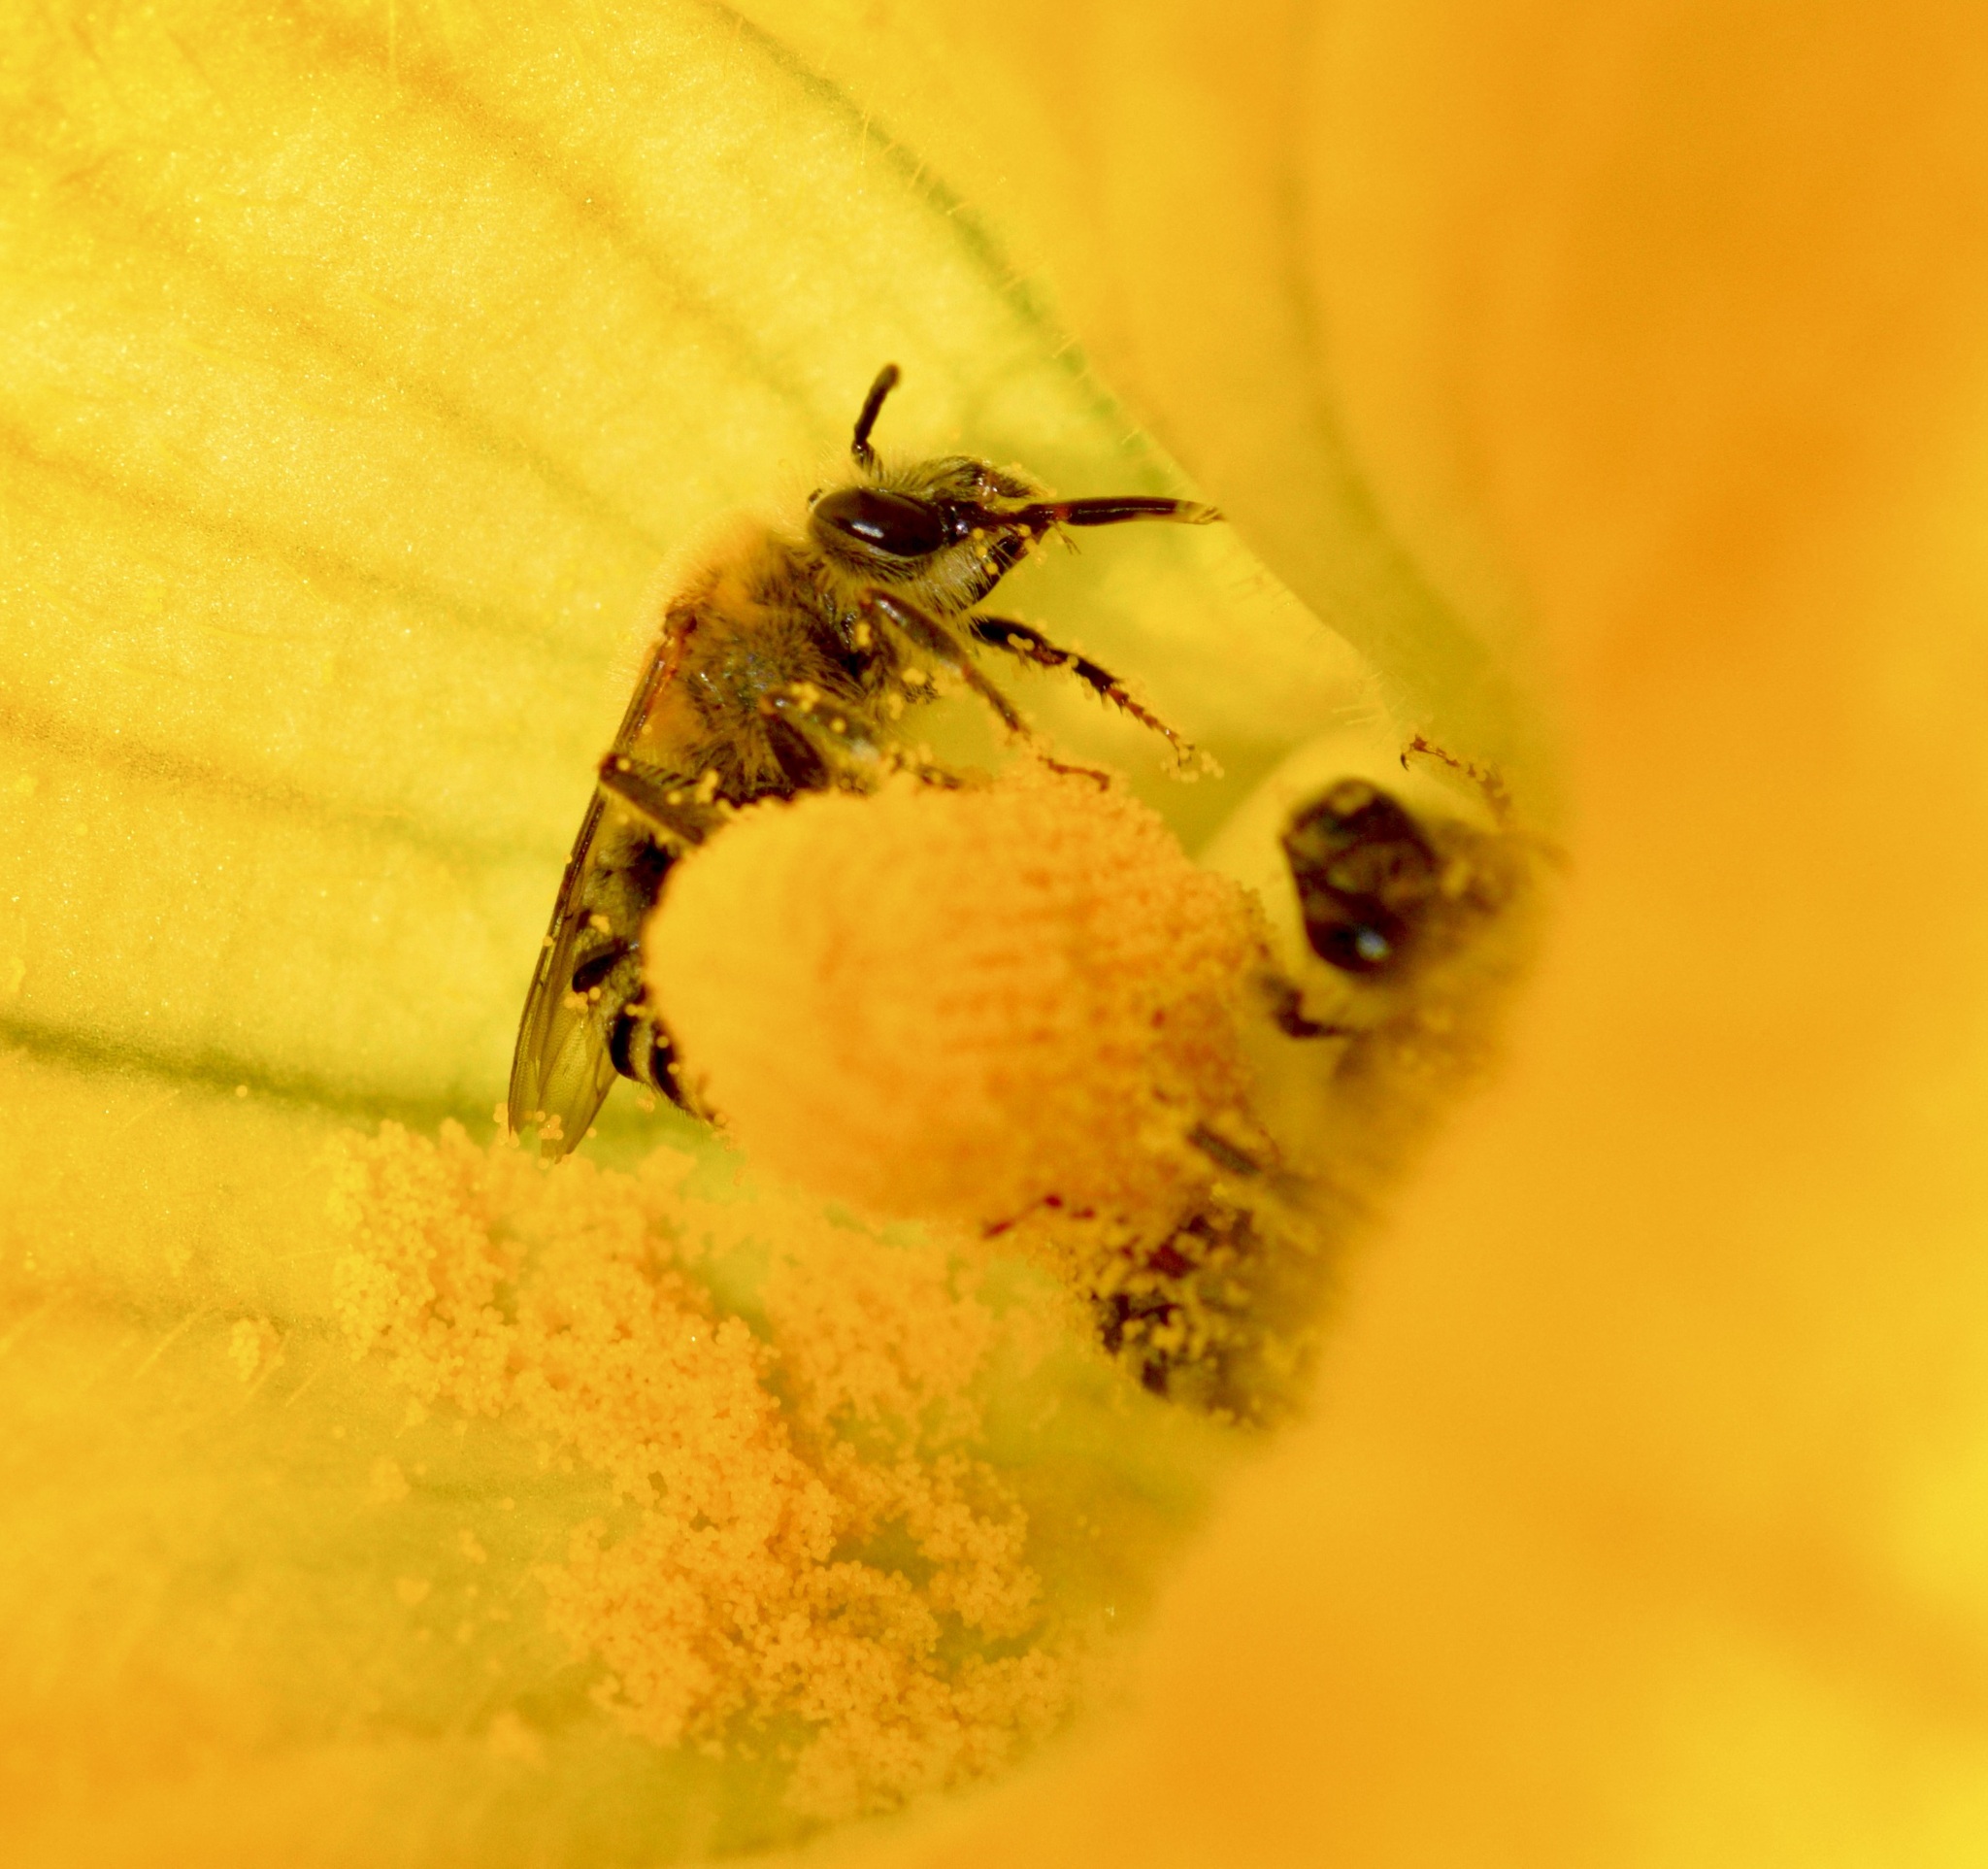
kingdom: Animalia
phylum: Arthropoda
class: Insecta
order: Hymenoptera
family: Apidae
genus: Peponapis
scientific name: Peponapis pruinosa
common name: Pruinose squash bee
